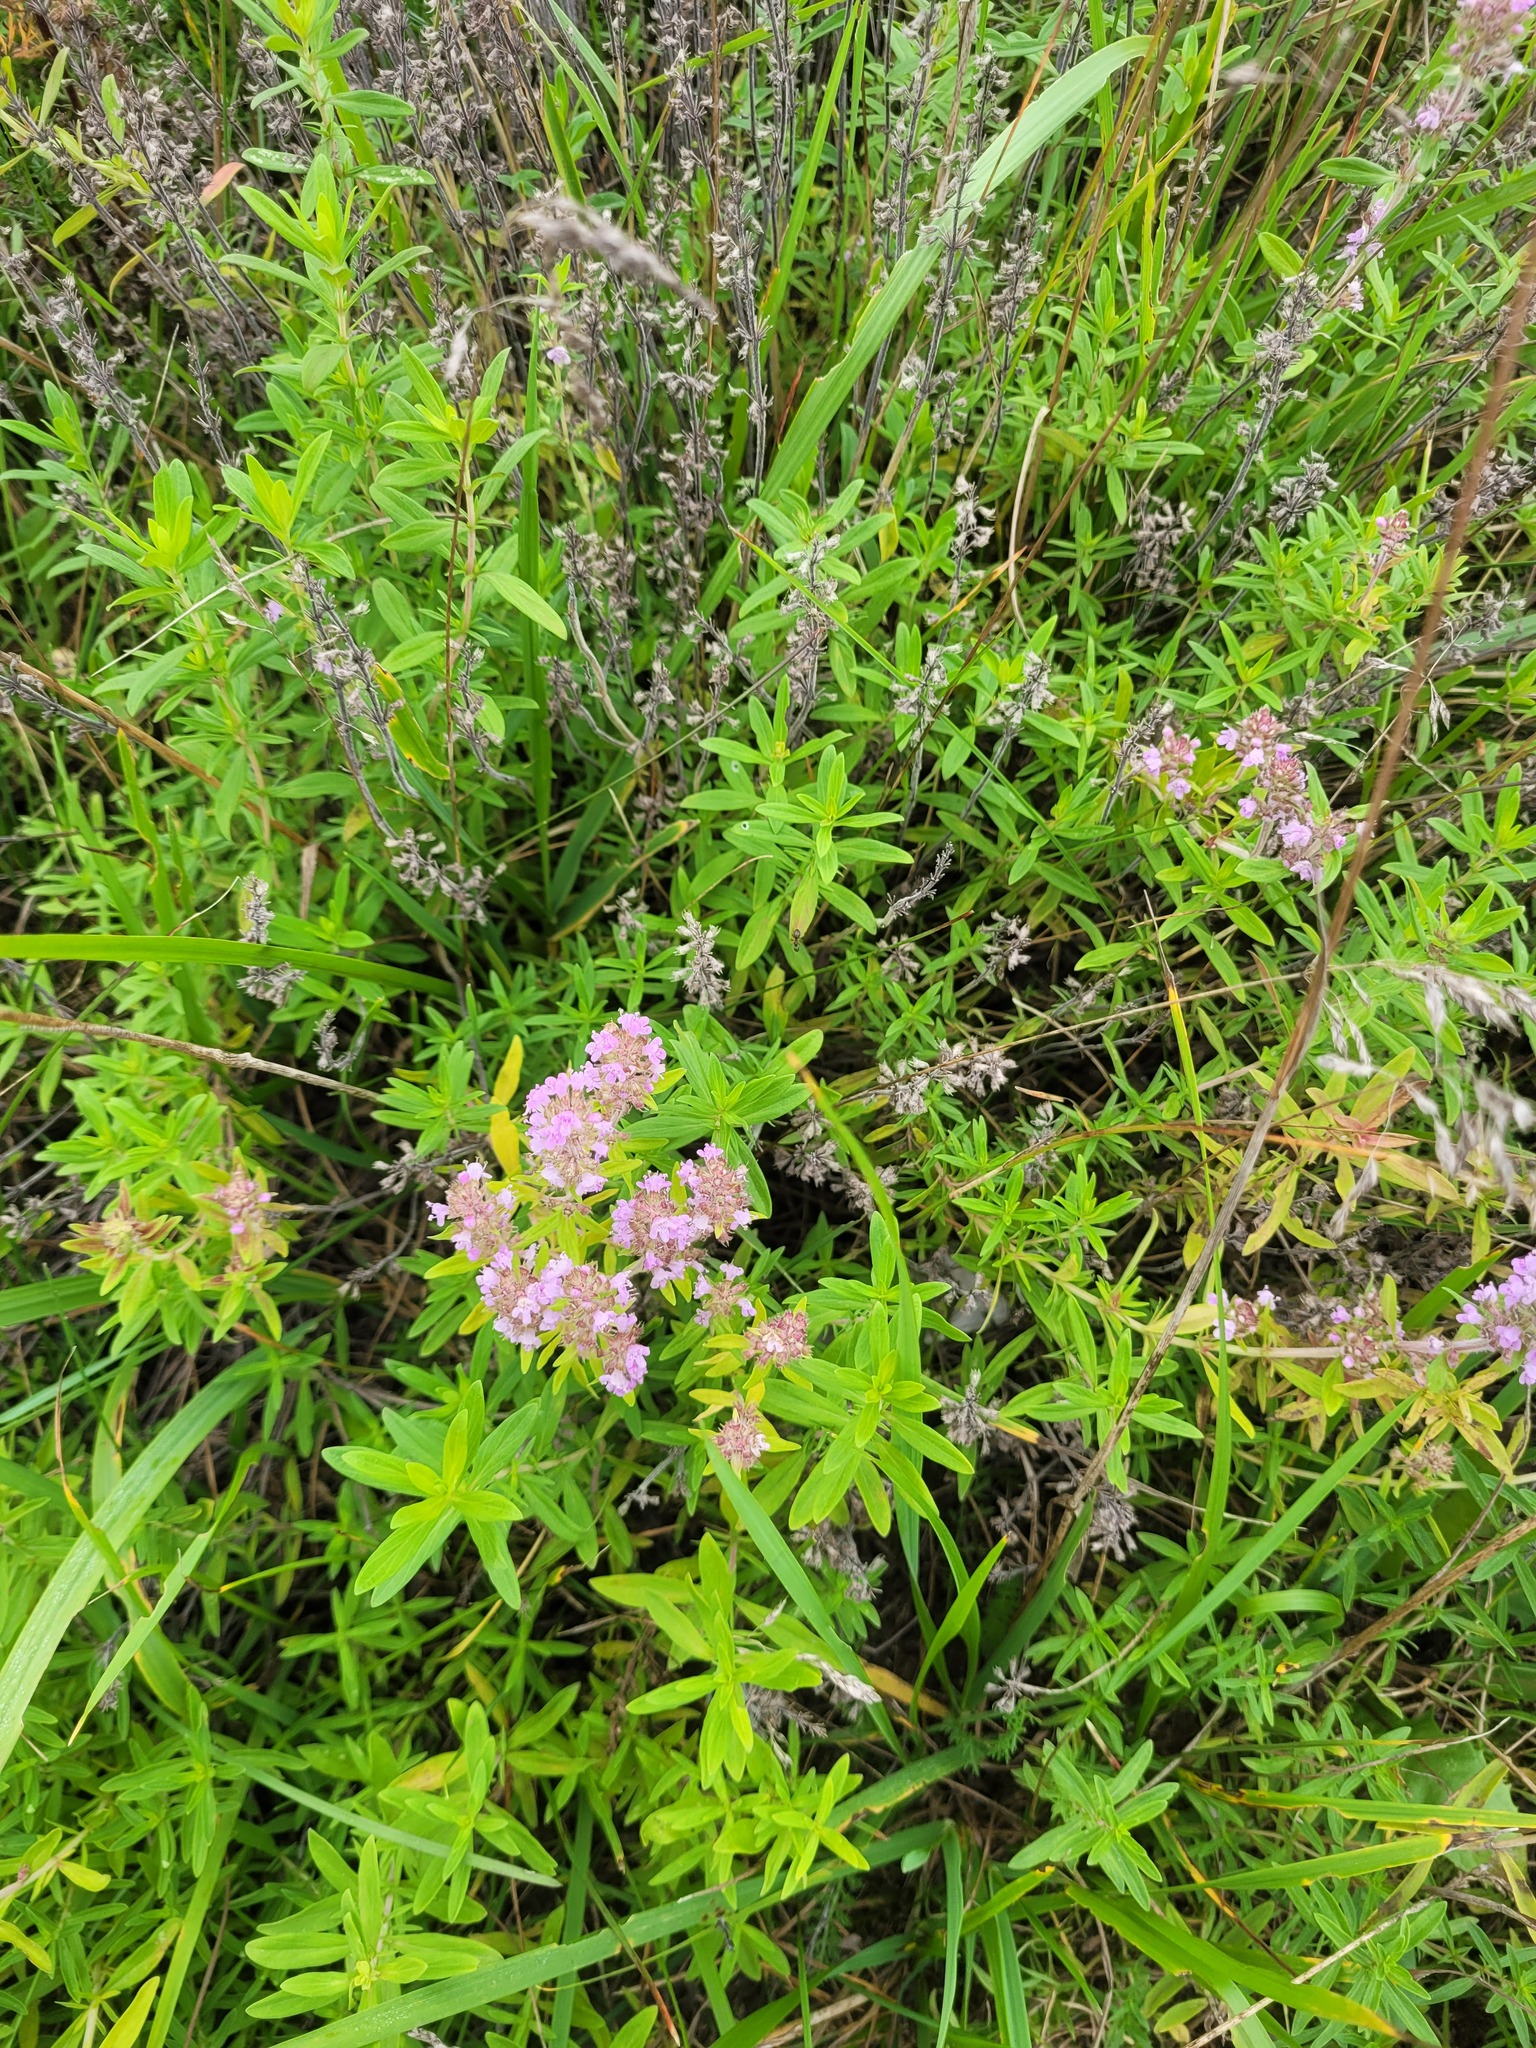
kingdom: Plantae
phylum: Tracheophyta
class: Magnoliopsida
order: Lamiales
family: Lamiaceae
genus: Thymus
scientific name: Thymus pannonicus
